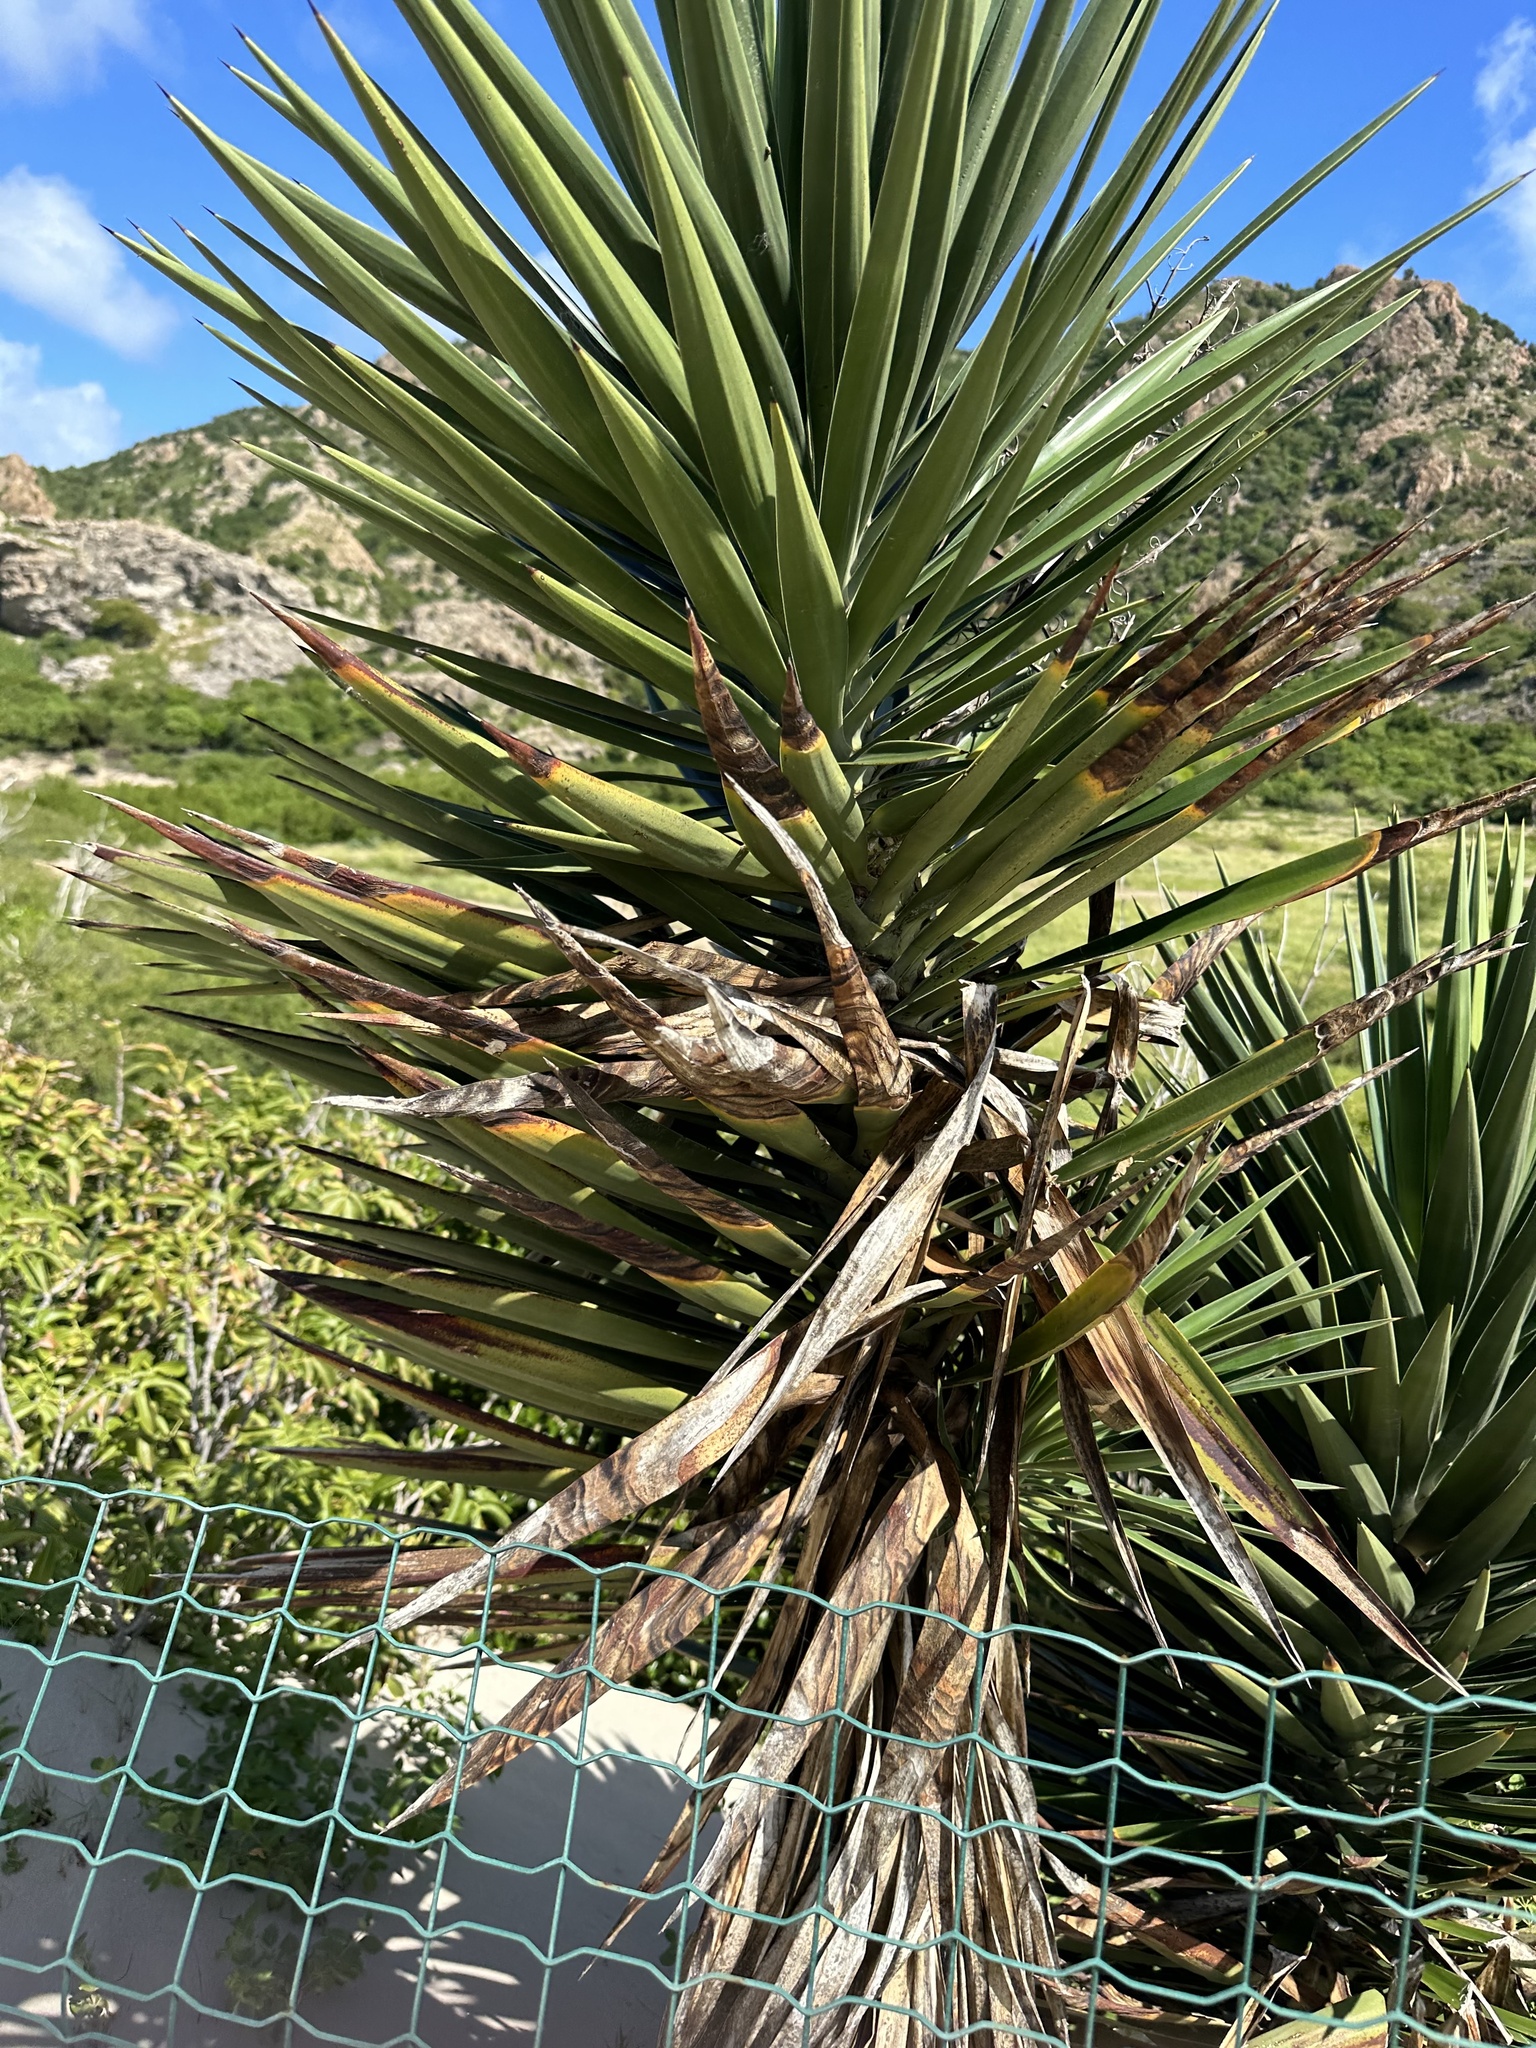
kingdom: Plantae
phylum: Tracheophyta
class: Liliopsida
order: Asparagales
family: Asparagaceae
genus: Yucca
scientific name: Yucca aloifolia
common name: Aloe yucca
